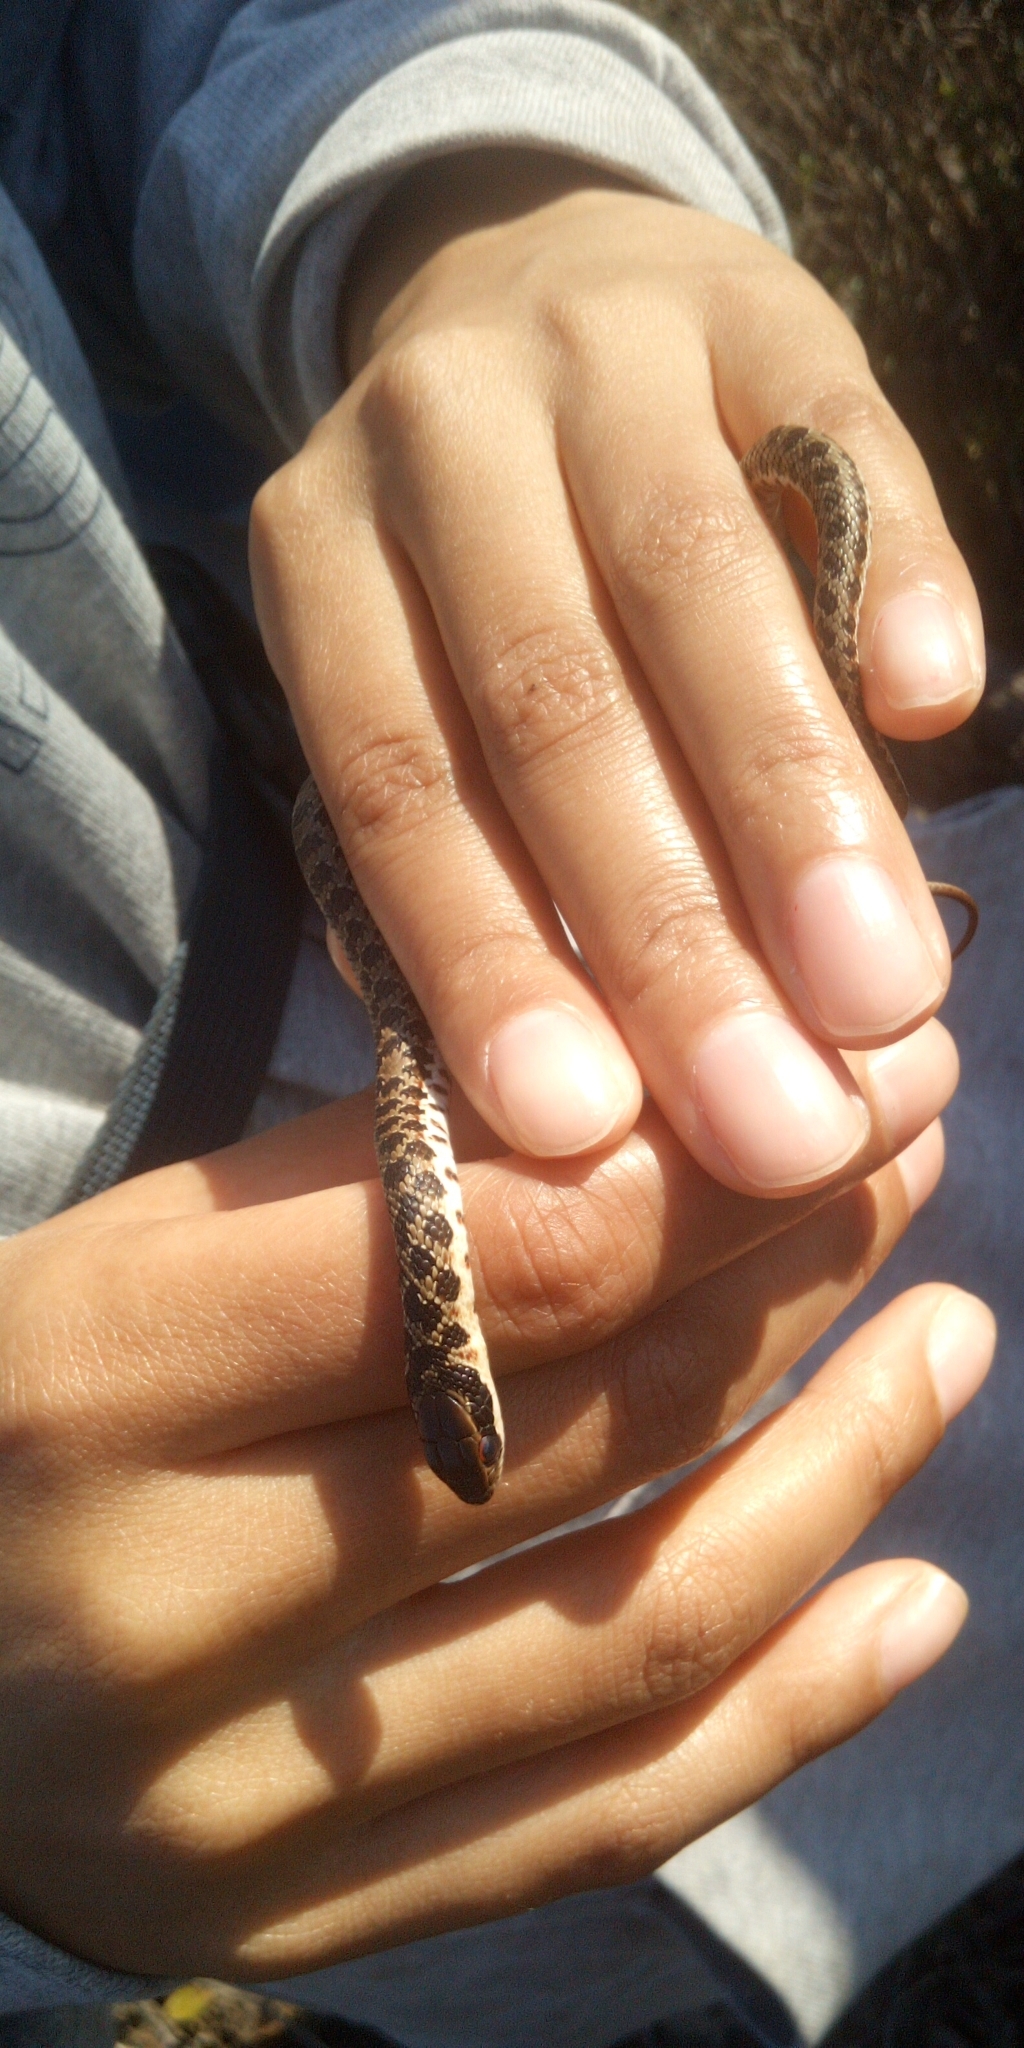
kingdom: Animalia
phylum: Chordata
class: Squamata
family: Psammophiidae
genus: Psammophylax
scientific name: Psammophylax rhombeatus
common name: Rhombic skaapsteker
